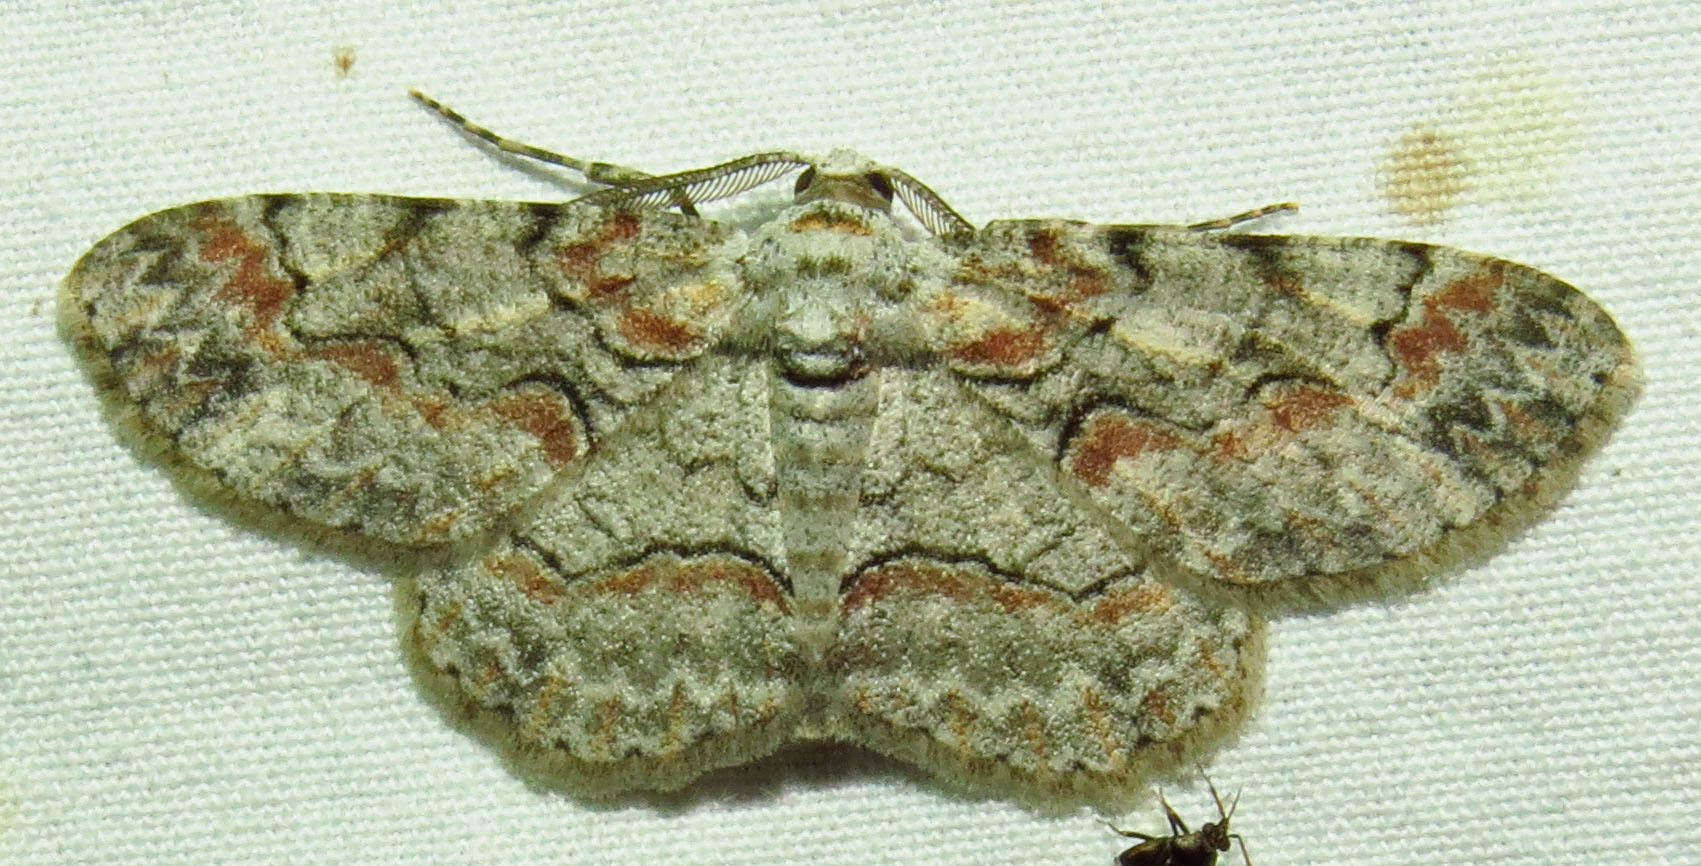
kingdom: Animalia
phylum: Arthropoda
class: Insecta
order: Lepidoptera
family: Geometridae
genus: Iridopsis
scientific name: Iridopsis defectaria
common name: Brown-shaded gray
